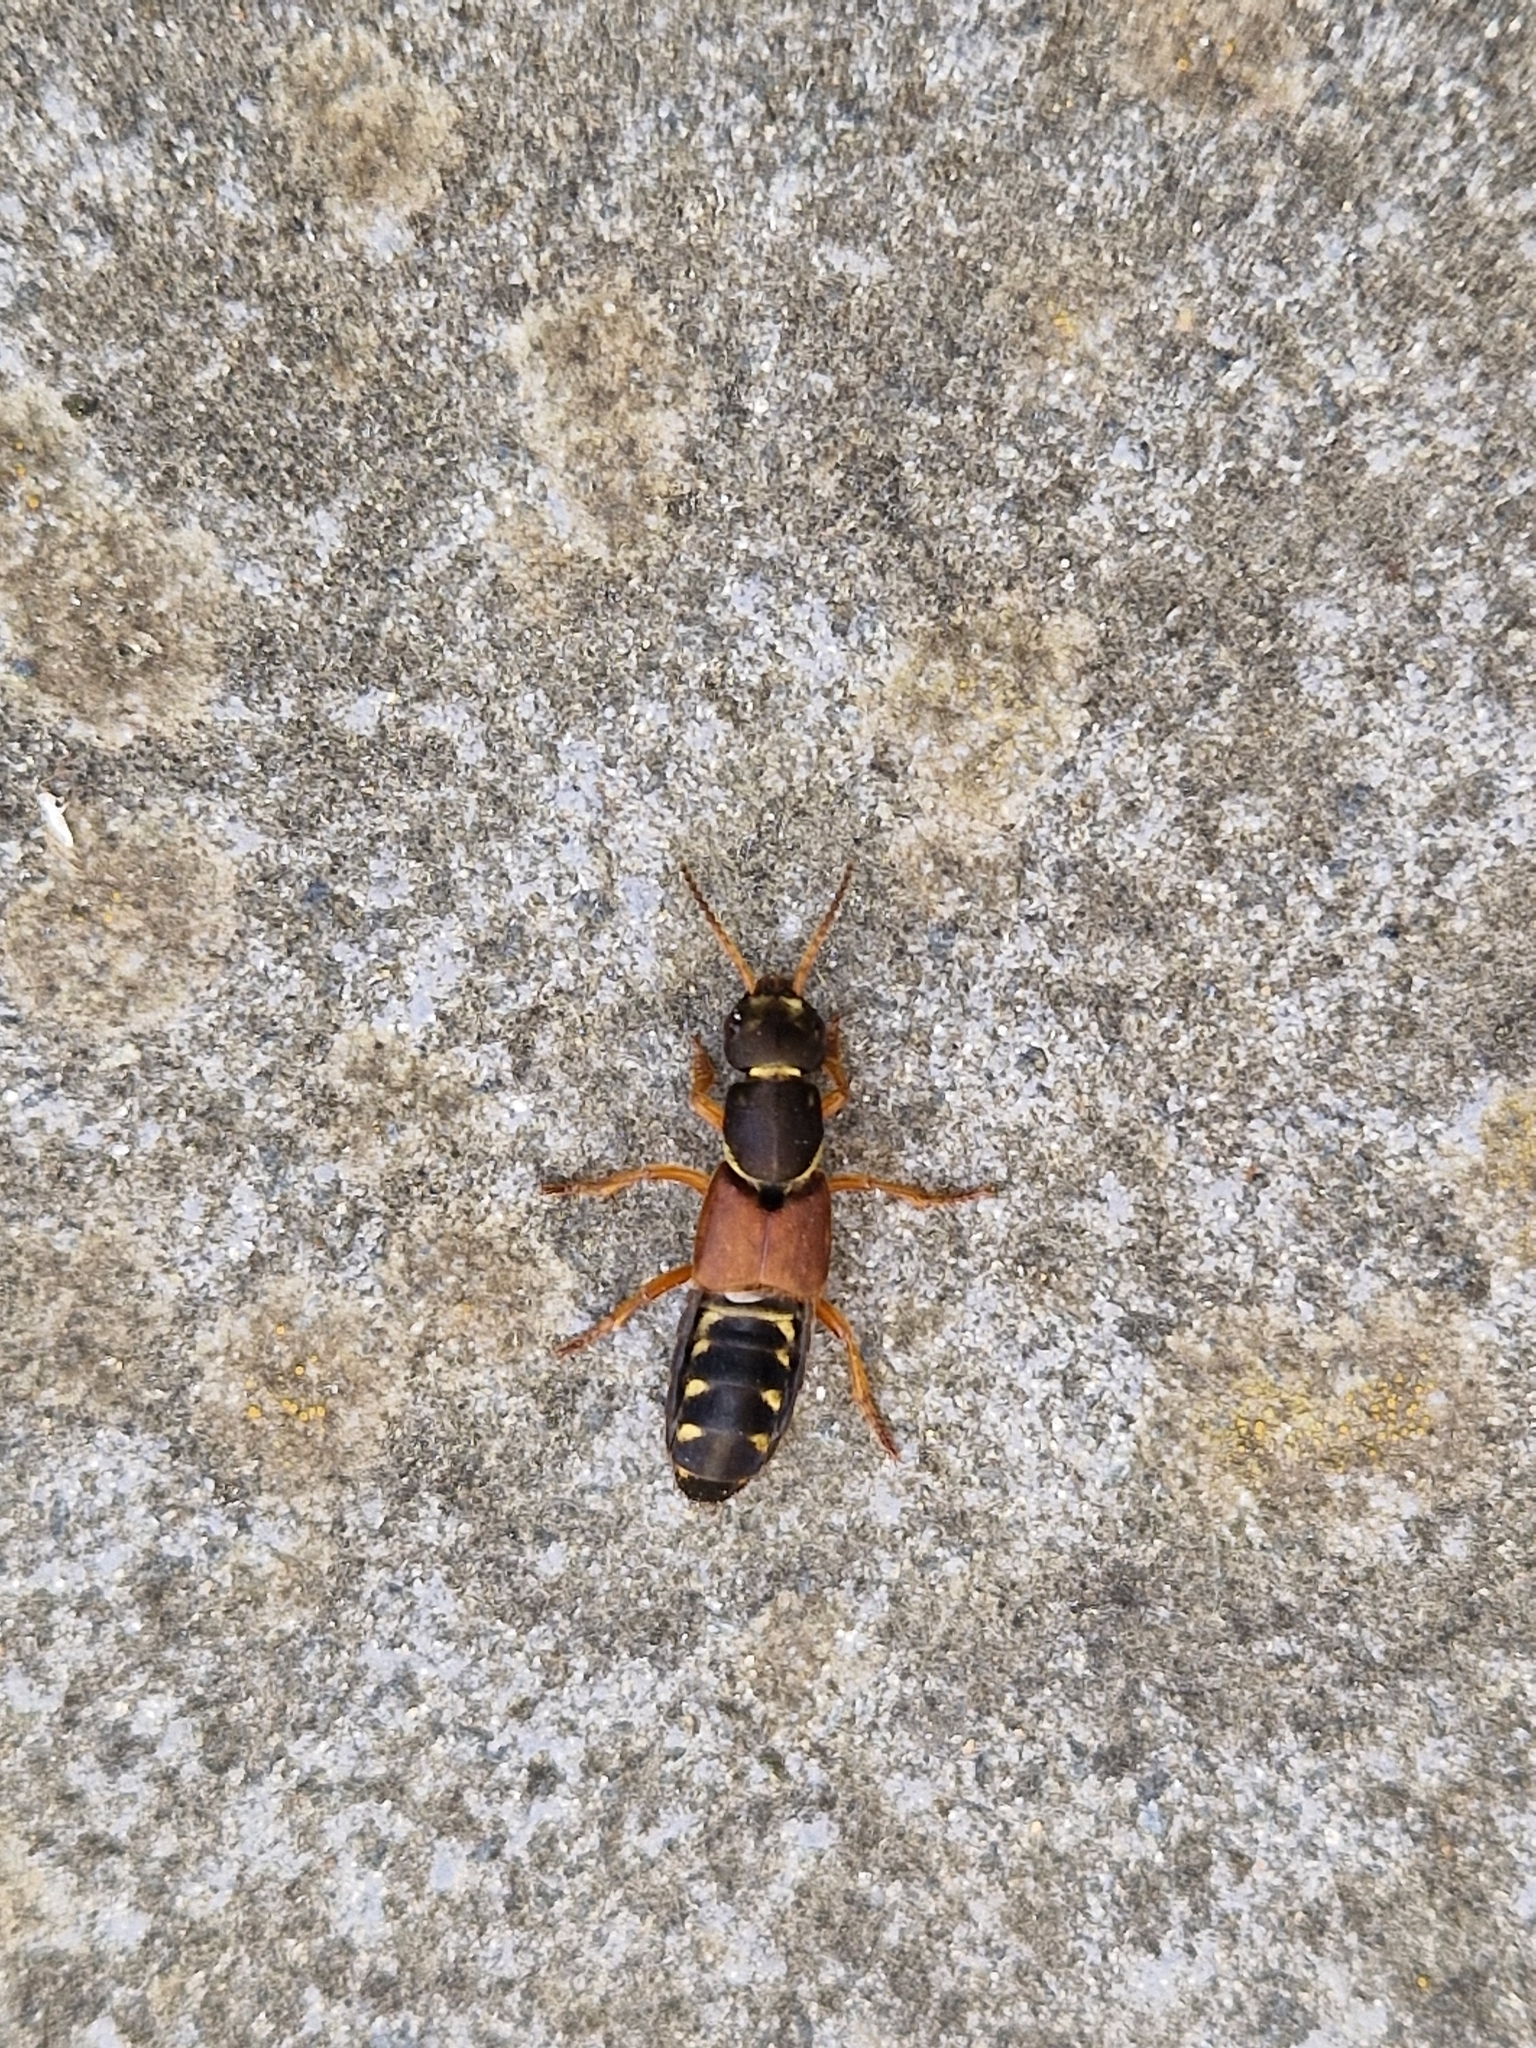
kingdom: Animalia
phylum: Arthropoda
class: Insecta
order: Coleoptera
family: Staphylinidae
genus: Staphylinus
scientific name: Staphylinus dimidiaticornis
